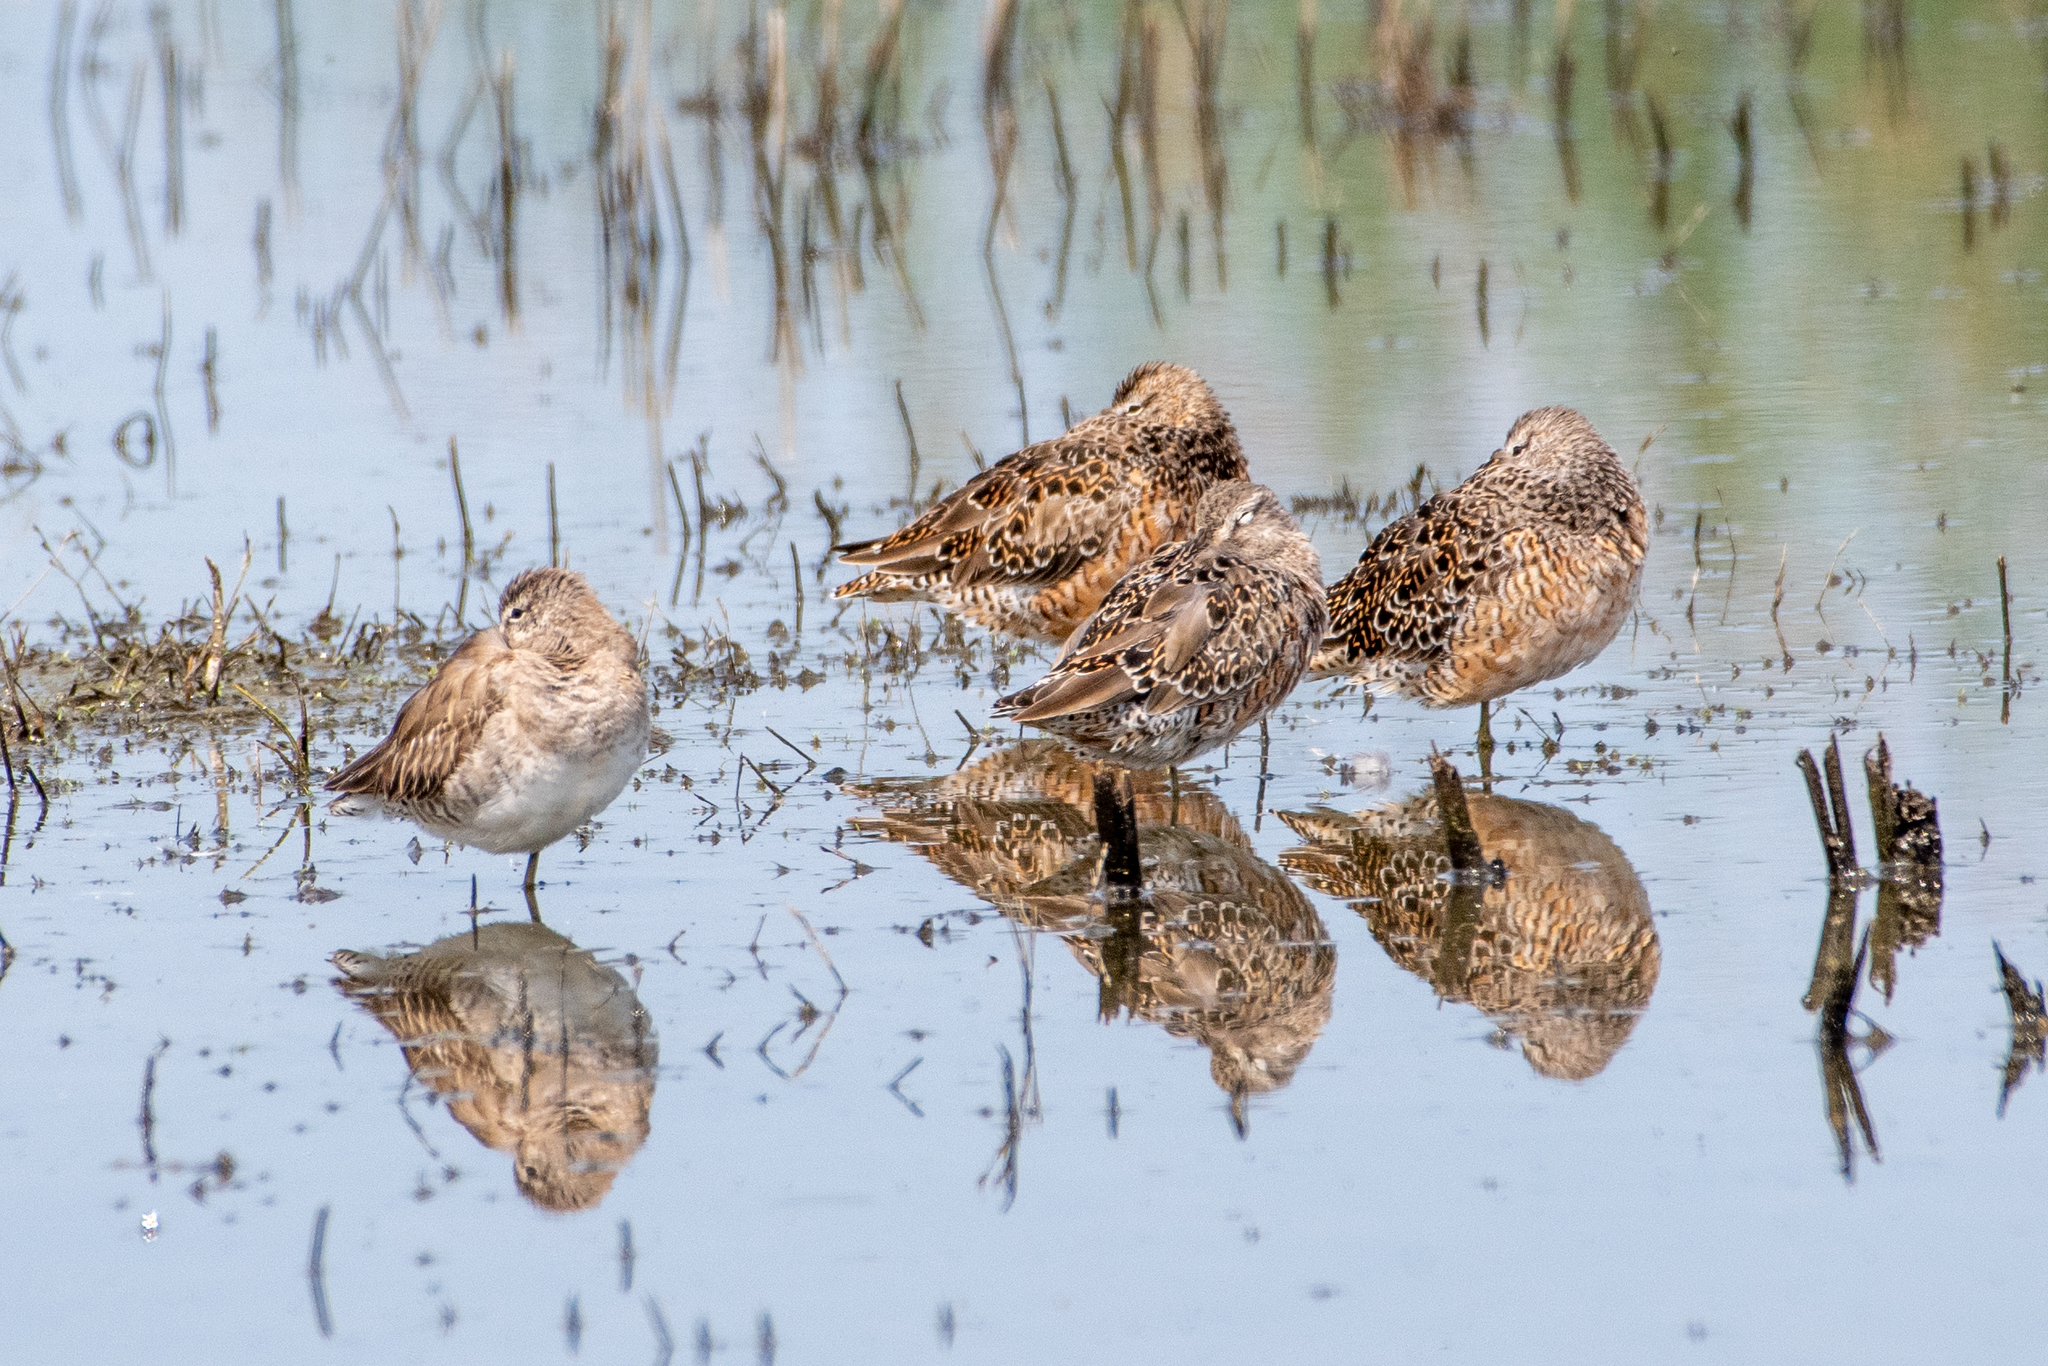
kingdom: Animalia
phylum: Chordata
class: Aves
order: Charadriiformes
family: Scolopacidae
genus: Limnodromus
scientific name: Limnodromus scolopaceus
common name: Long-billed dowitcher
